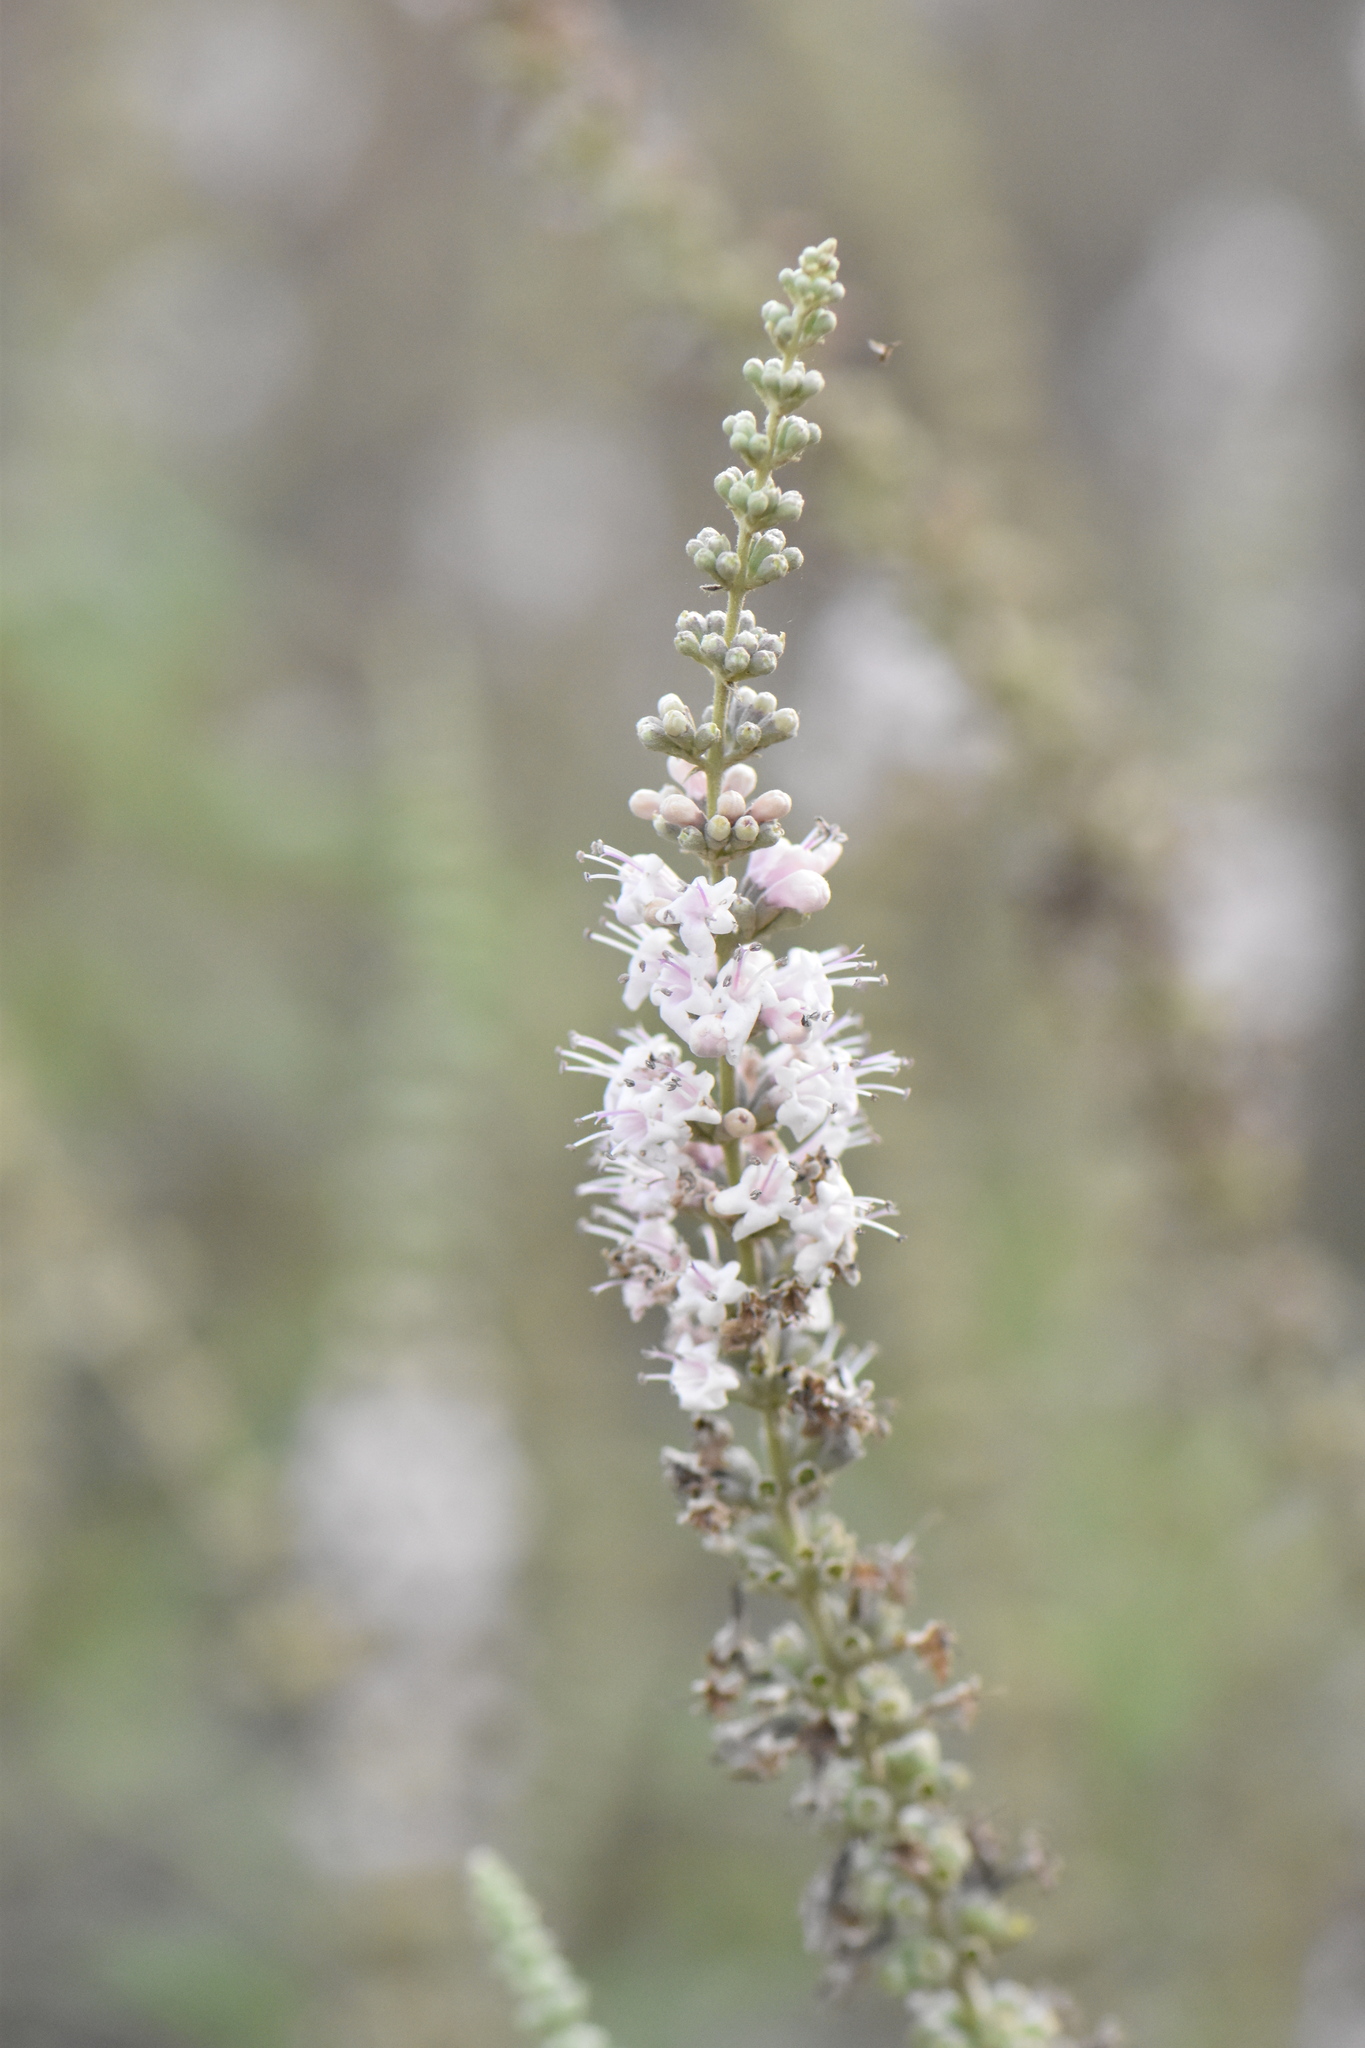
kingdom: Plantae
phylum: Tracheophyta
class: Magnoliopsida
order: Lamiales
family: Lamiaceae
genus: Vitex
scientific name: Vitex agnus-castus
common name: Chasteberry
